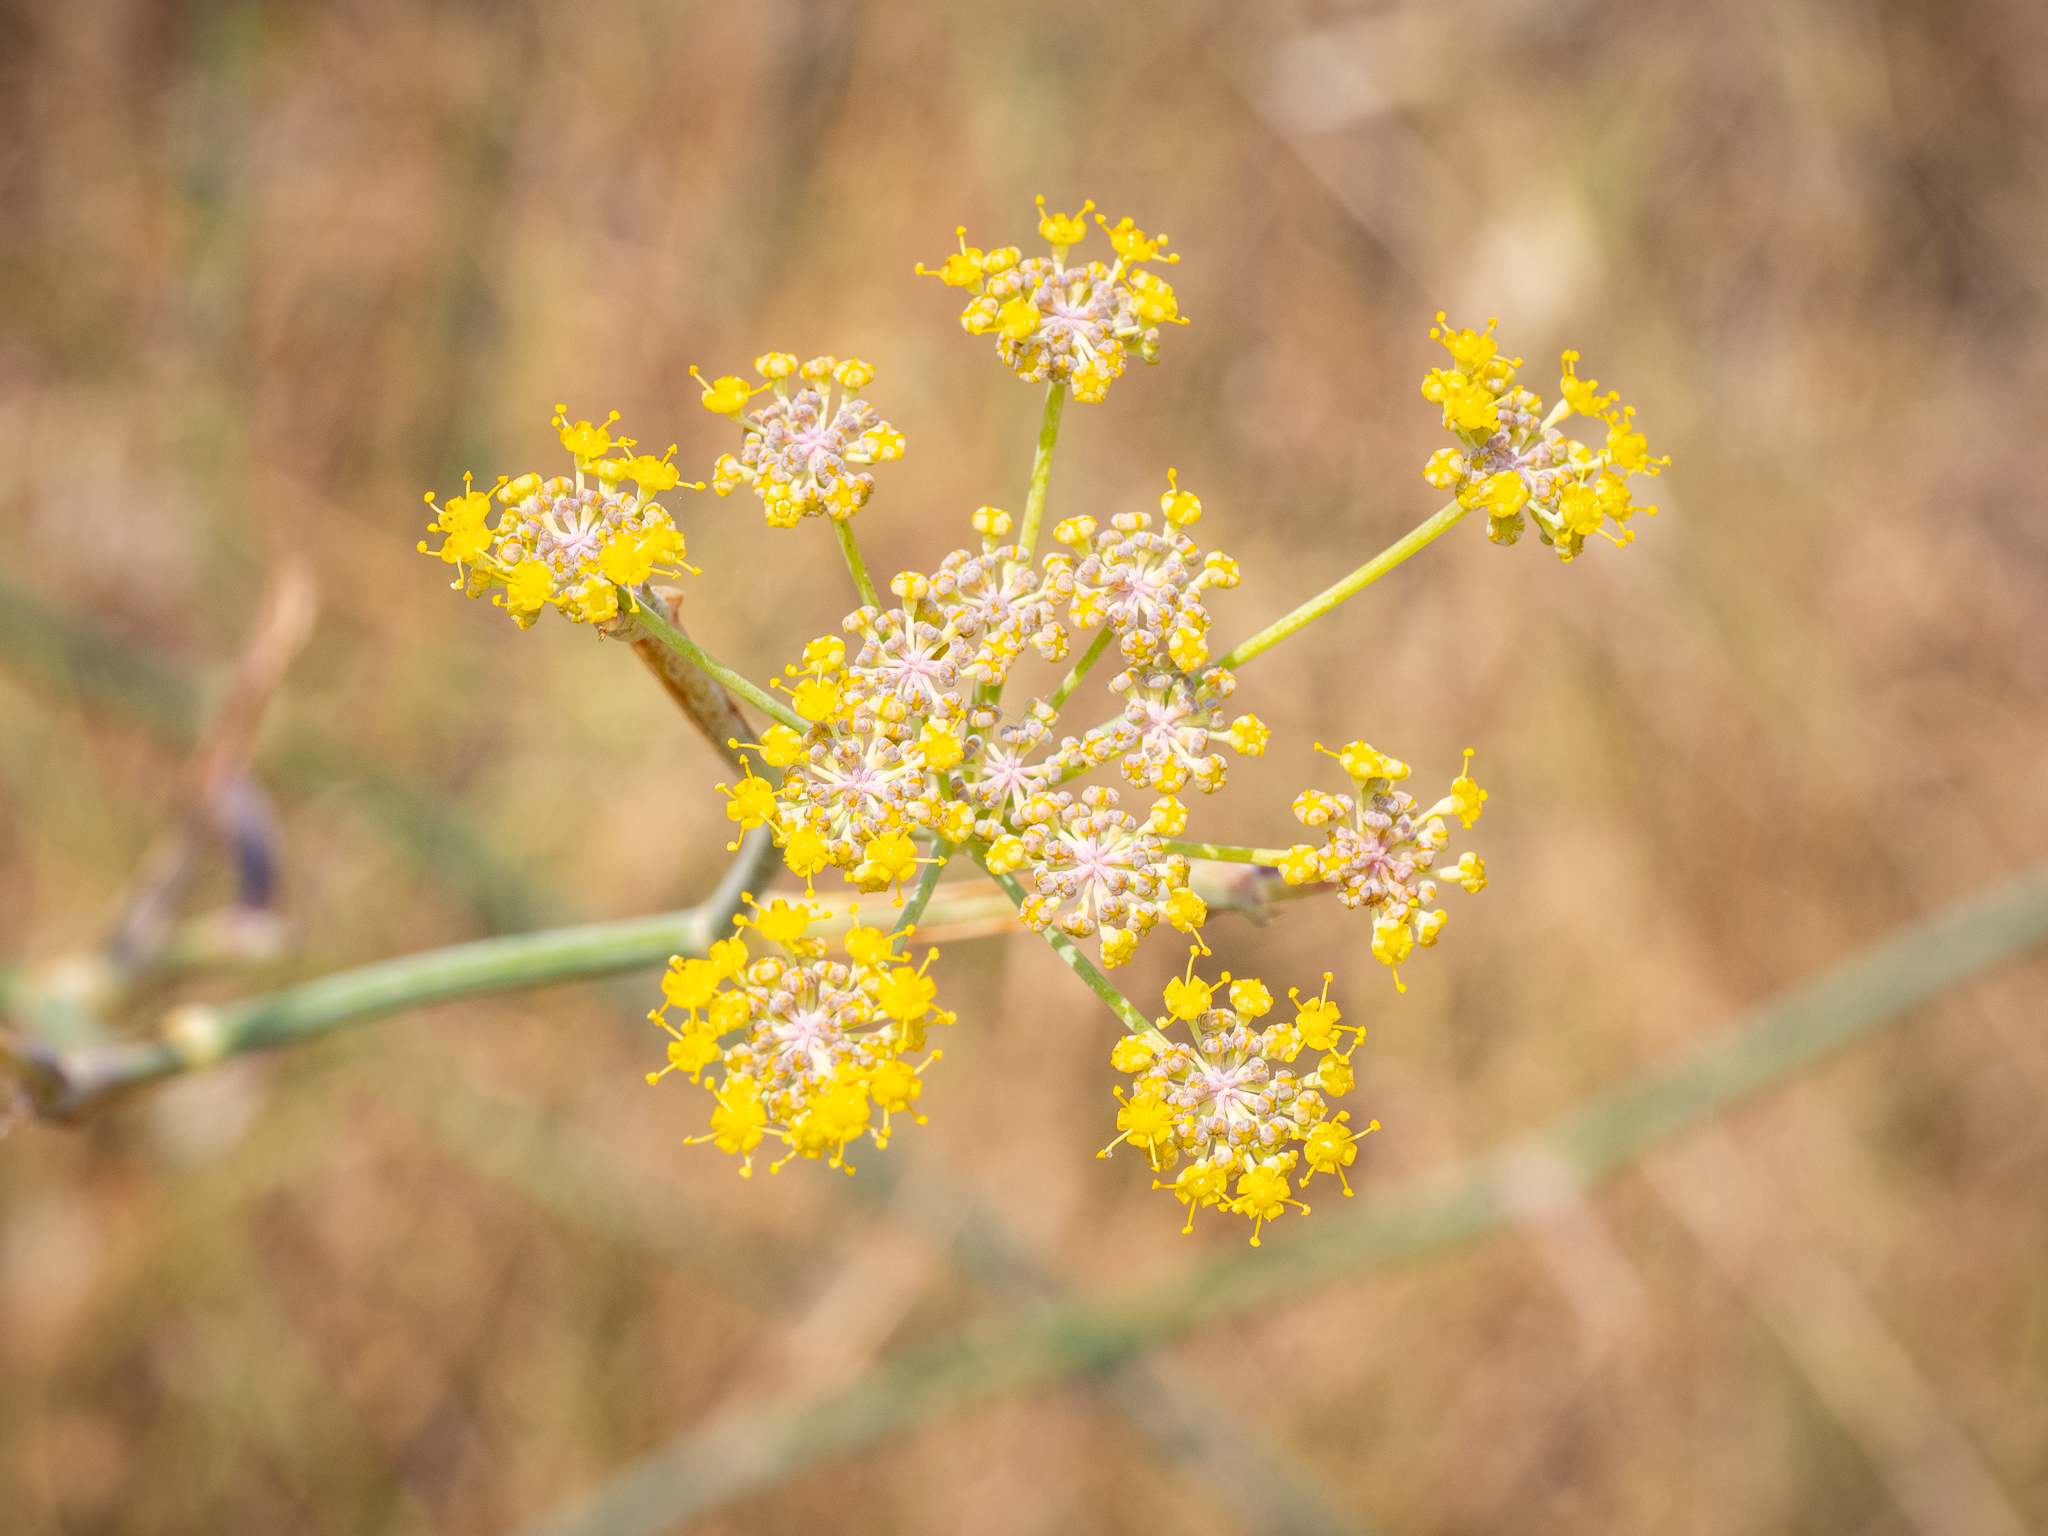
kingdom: Plantae
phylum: Tracheophyta
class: Magnoliopsida
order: Apiales
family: Apiaceae
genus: Foeniculum
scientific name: Foeniculum vulgare
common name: Fennel
